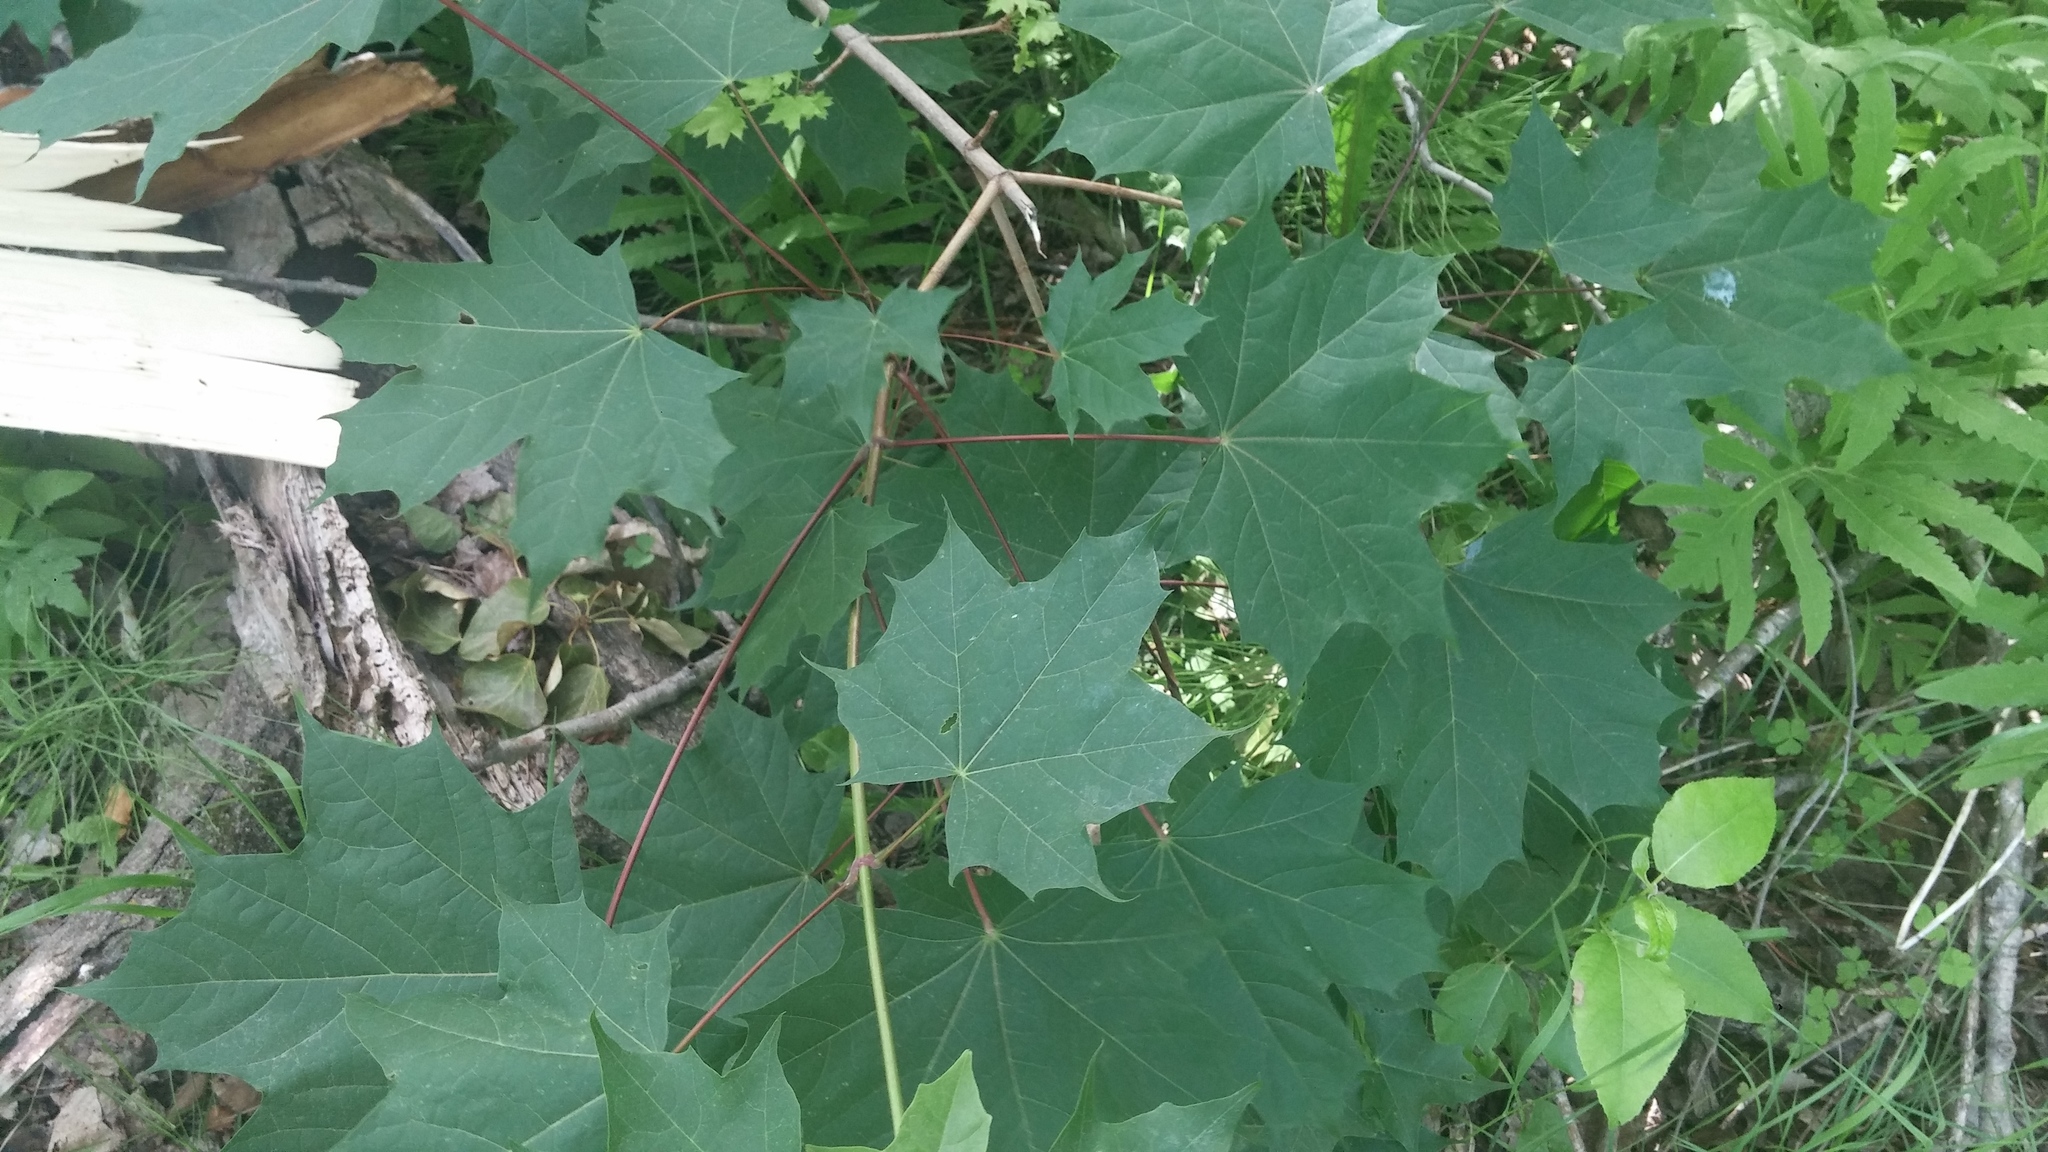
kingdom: Plantae
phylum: Tracheophyta
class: Magnoliopsida
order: Sapindales
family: Sapindaceae
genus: Acer
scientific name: Acer platanoides
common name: Norway maple
